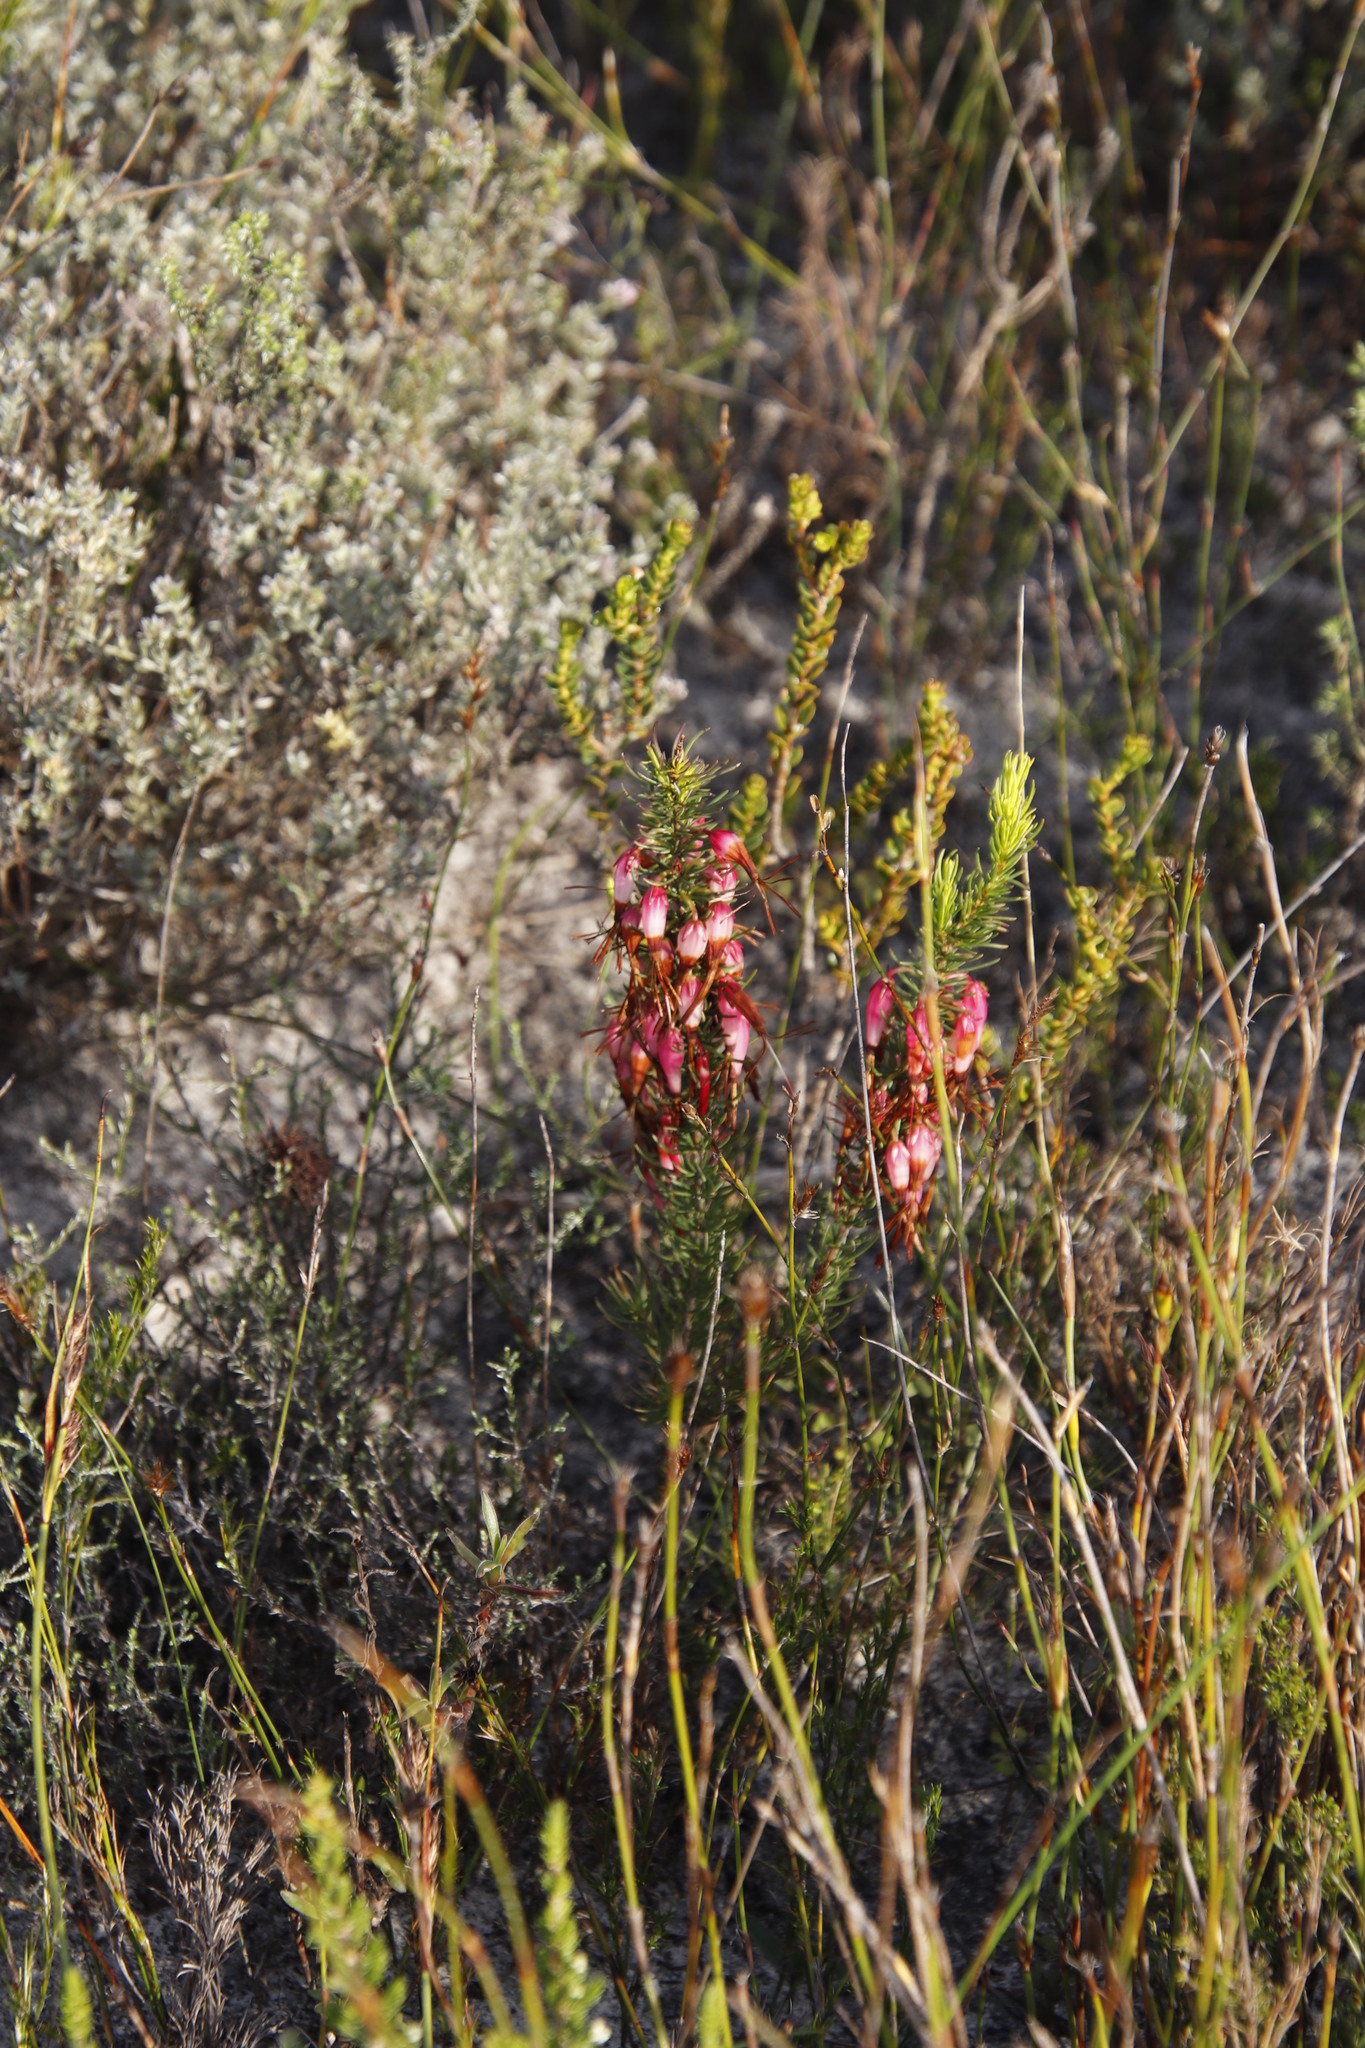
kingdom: Plantae
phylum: Tracheophyta
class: Magnoliopsida
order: Ericales
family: Ericaceae
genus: Erica
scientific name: Erica plukenetii
